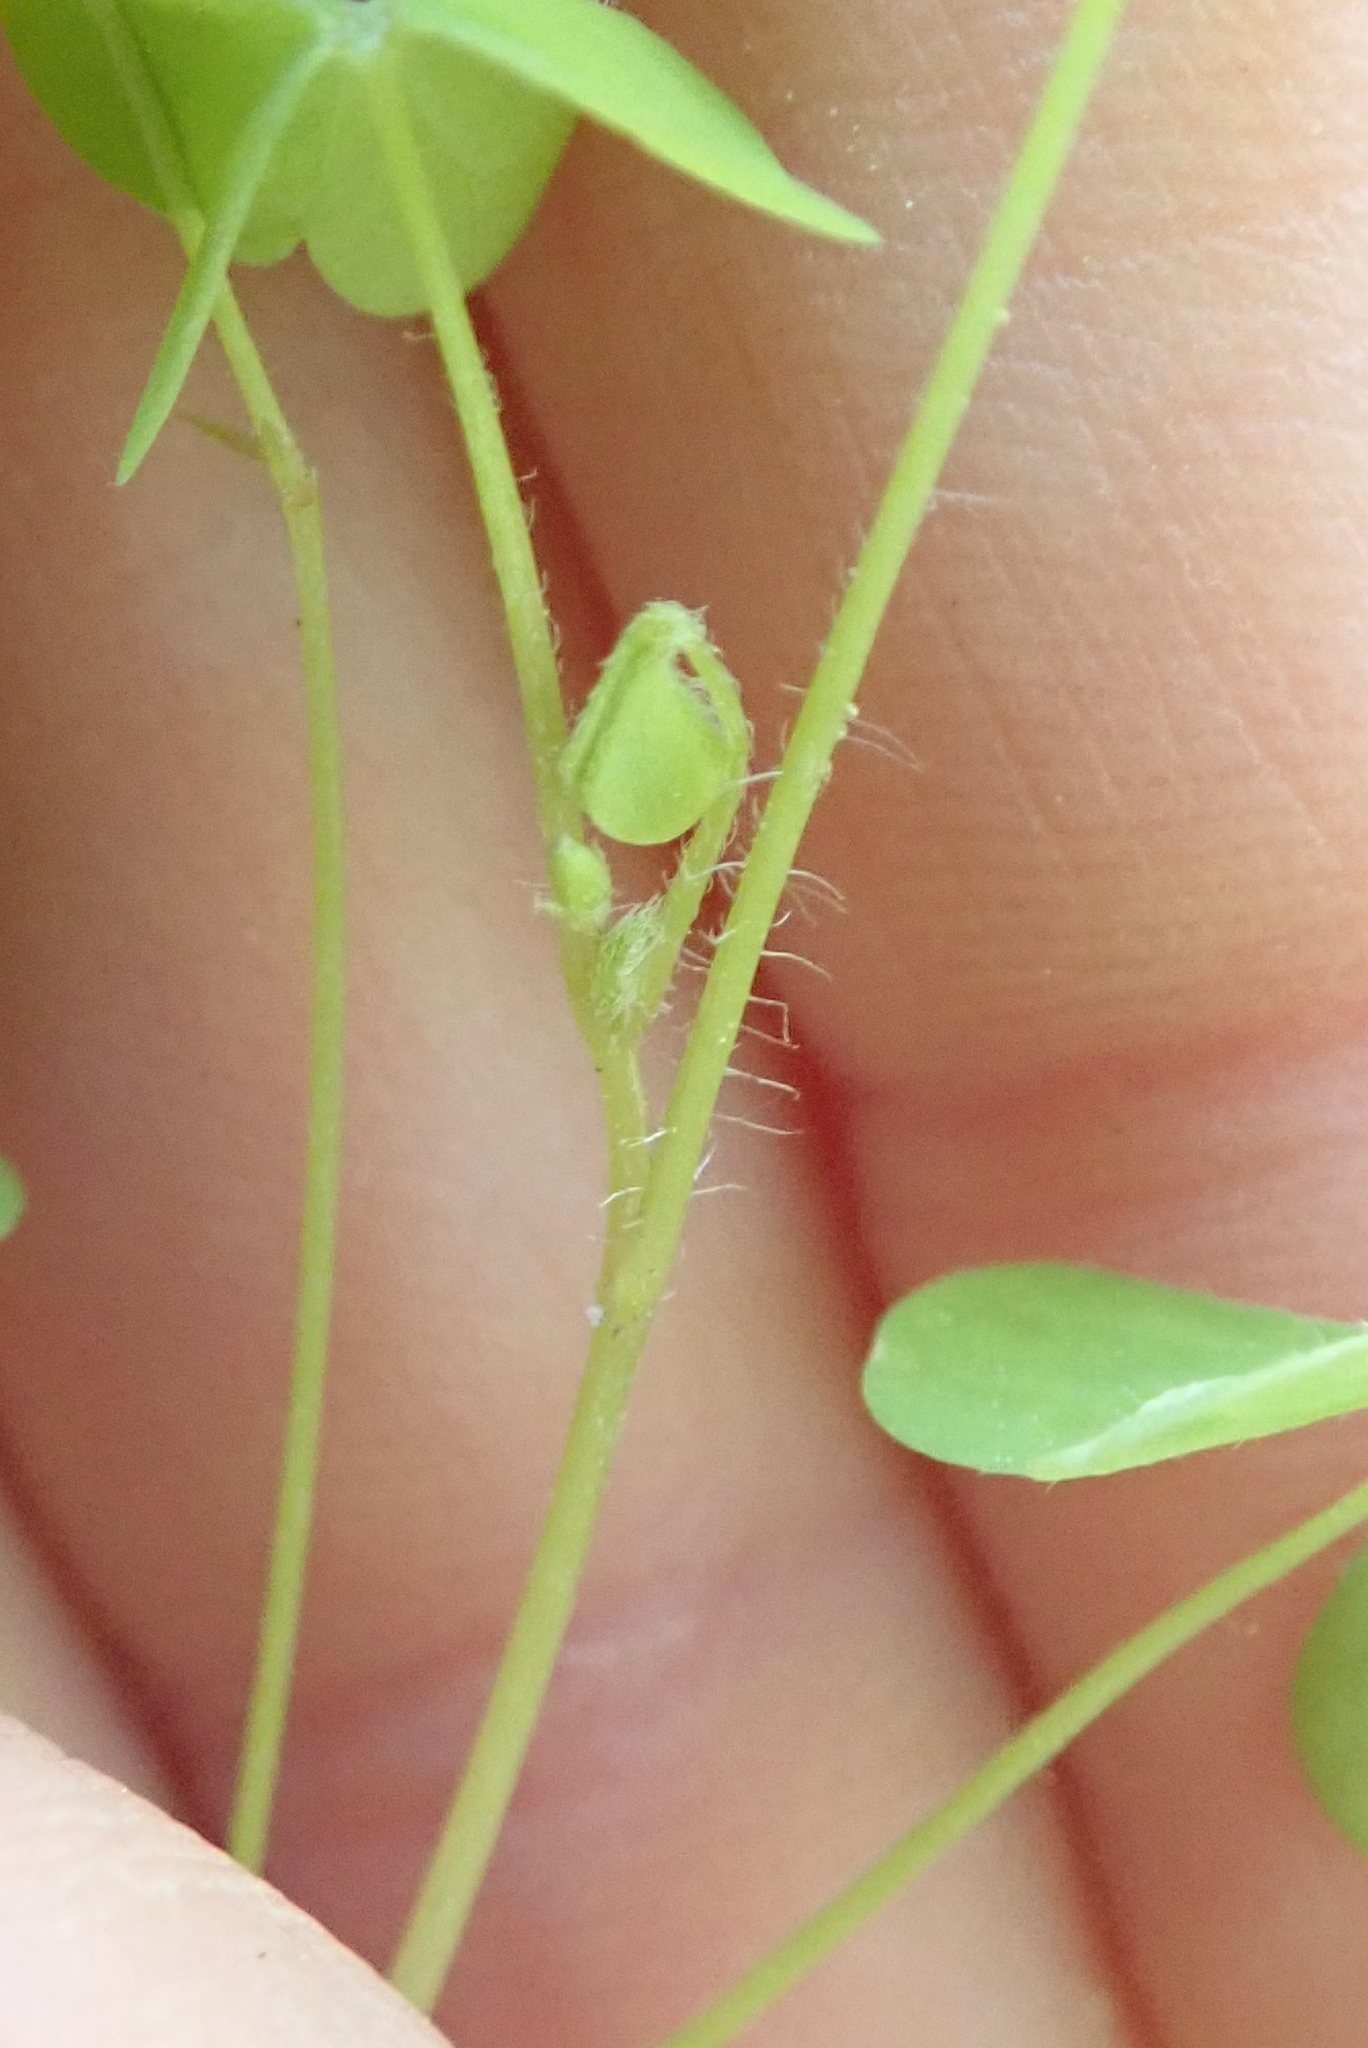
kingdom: Plantae
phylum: Tracheophyta
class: Magnoliopsida
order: Oxalidales
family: Oxalidaceae
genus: Oxalis
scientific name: Oxalis stricta
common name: Upright yellow-sorrel
